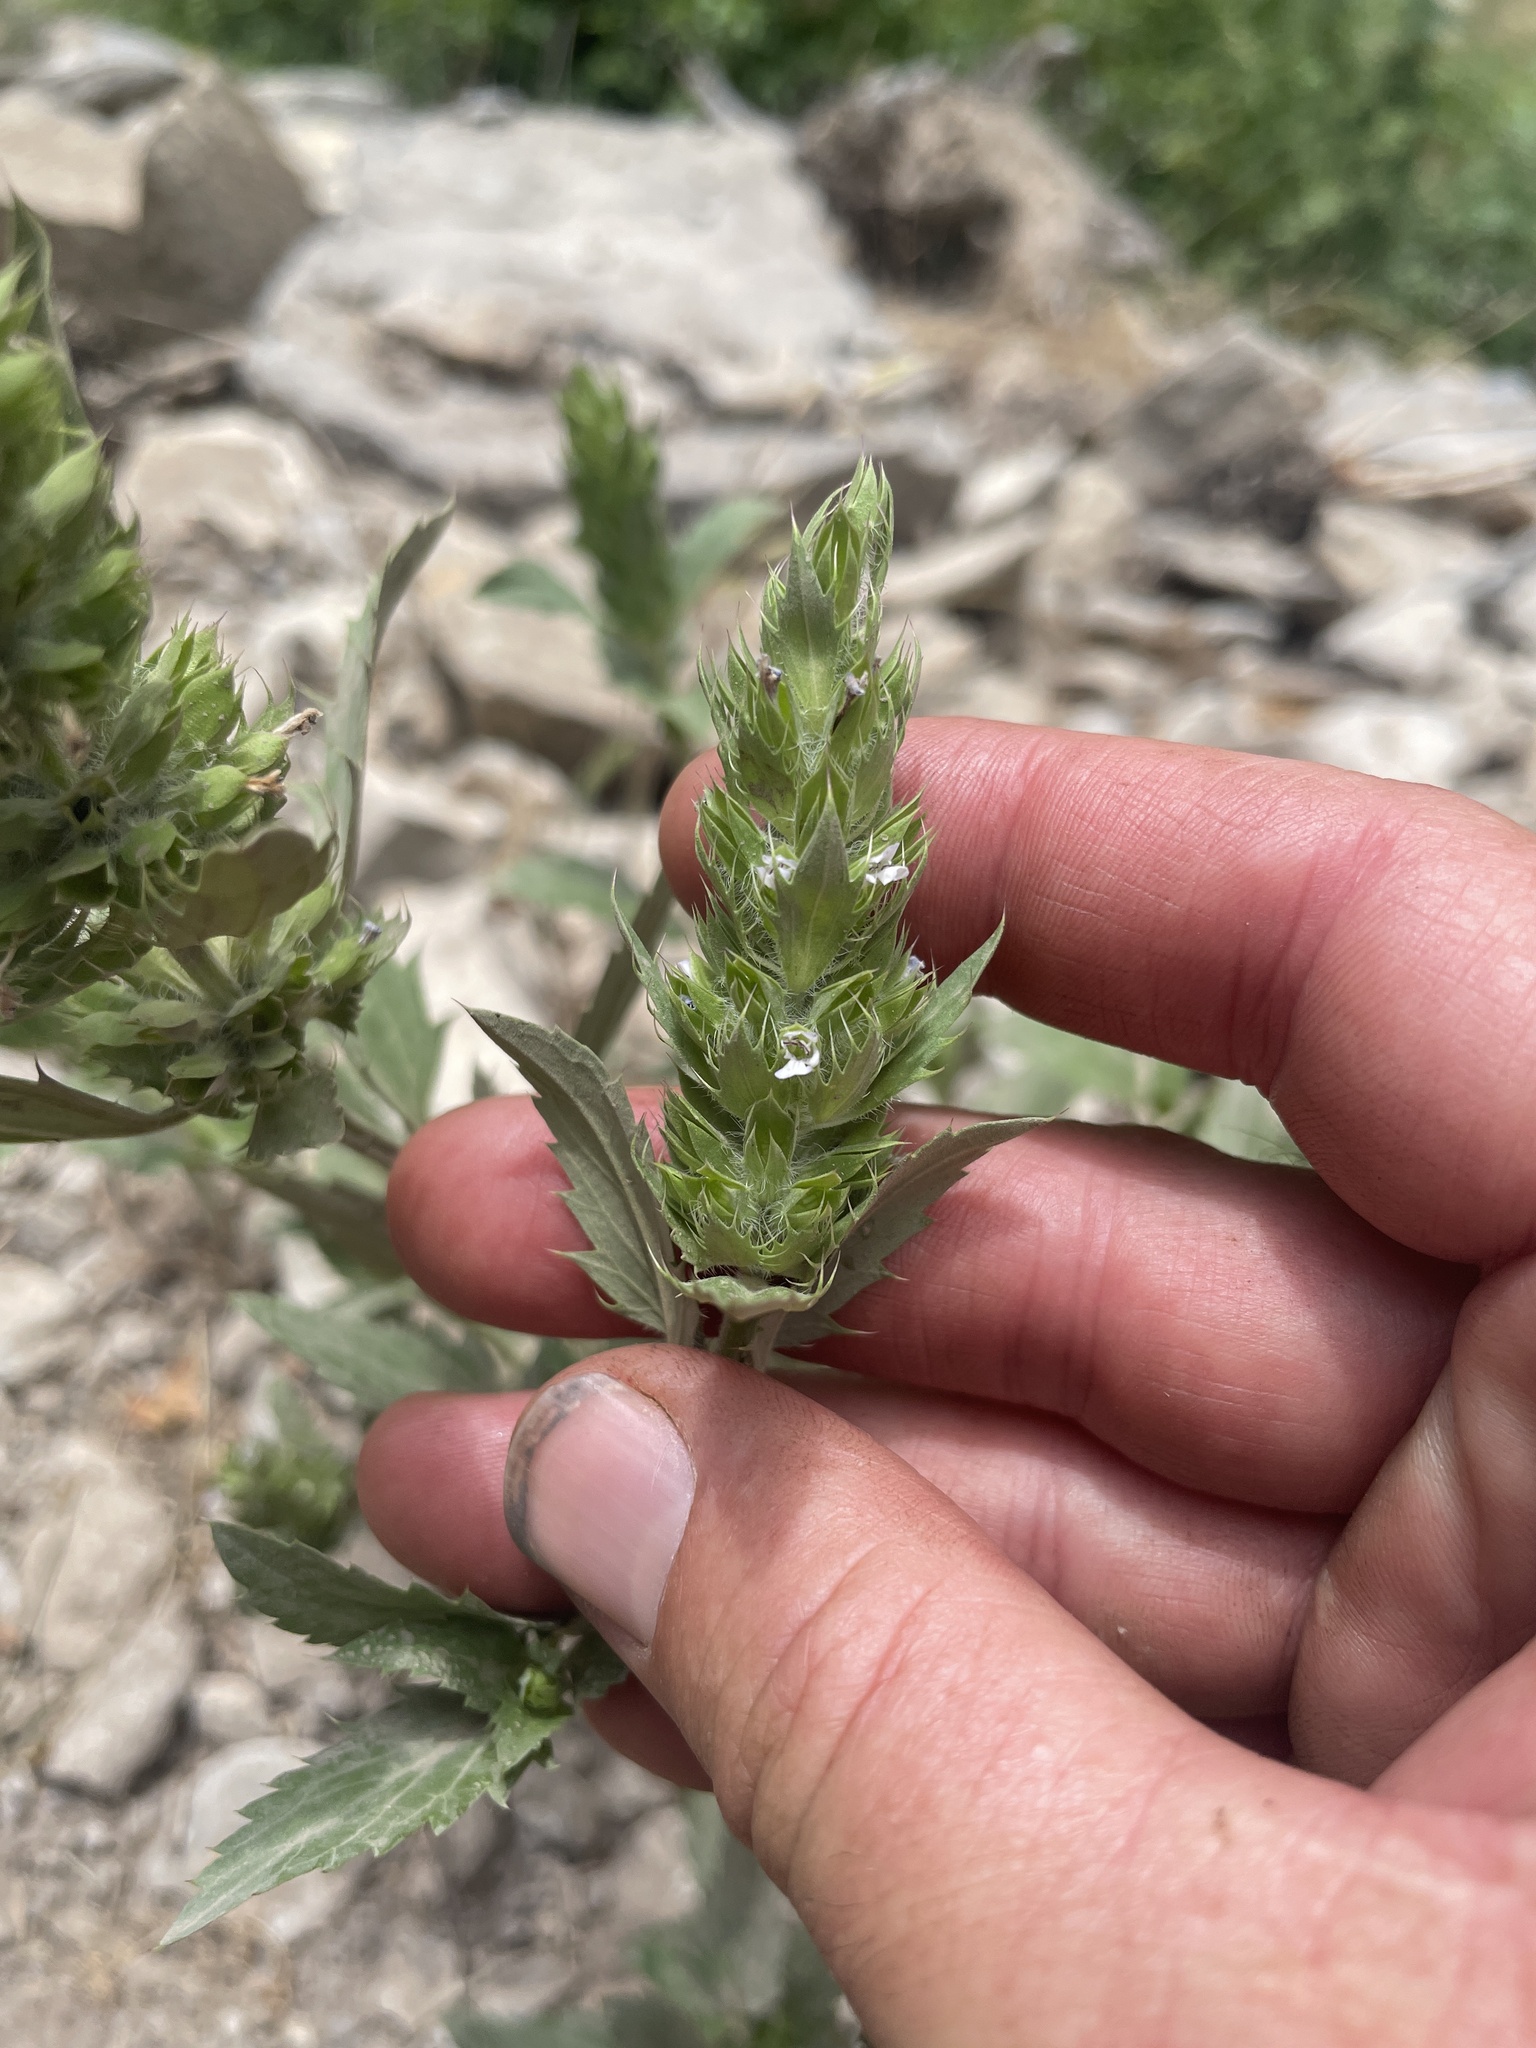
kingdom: Plantae
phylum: Tracheophyta
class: Magnoliopsida
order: Lamiales
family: Lamiaceae
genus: Dracocephalum
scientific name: Dracocephalum parviflorum
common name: American dragonhead
